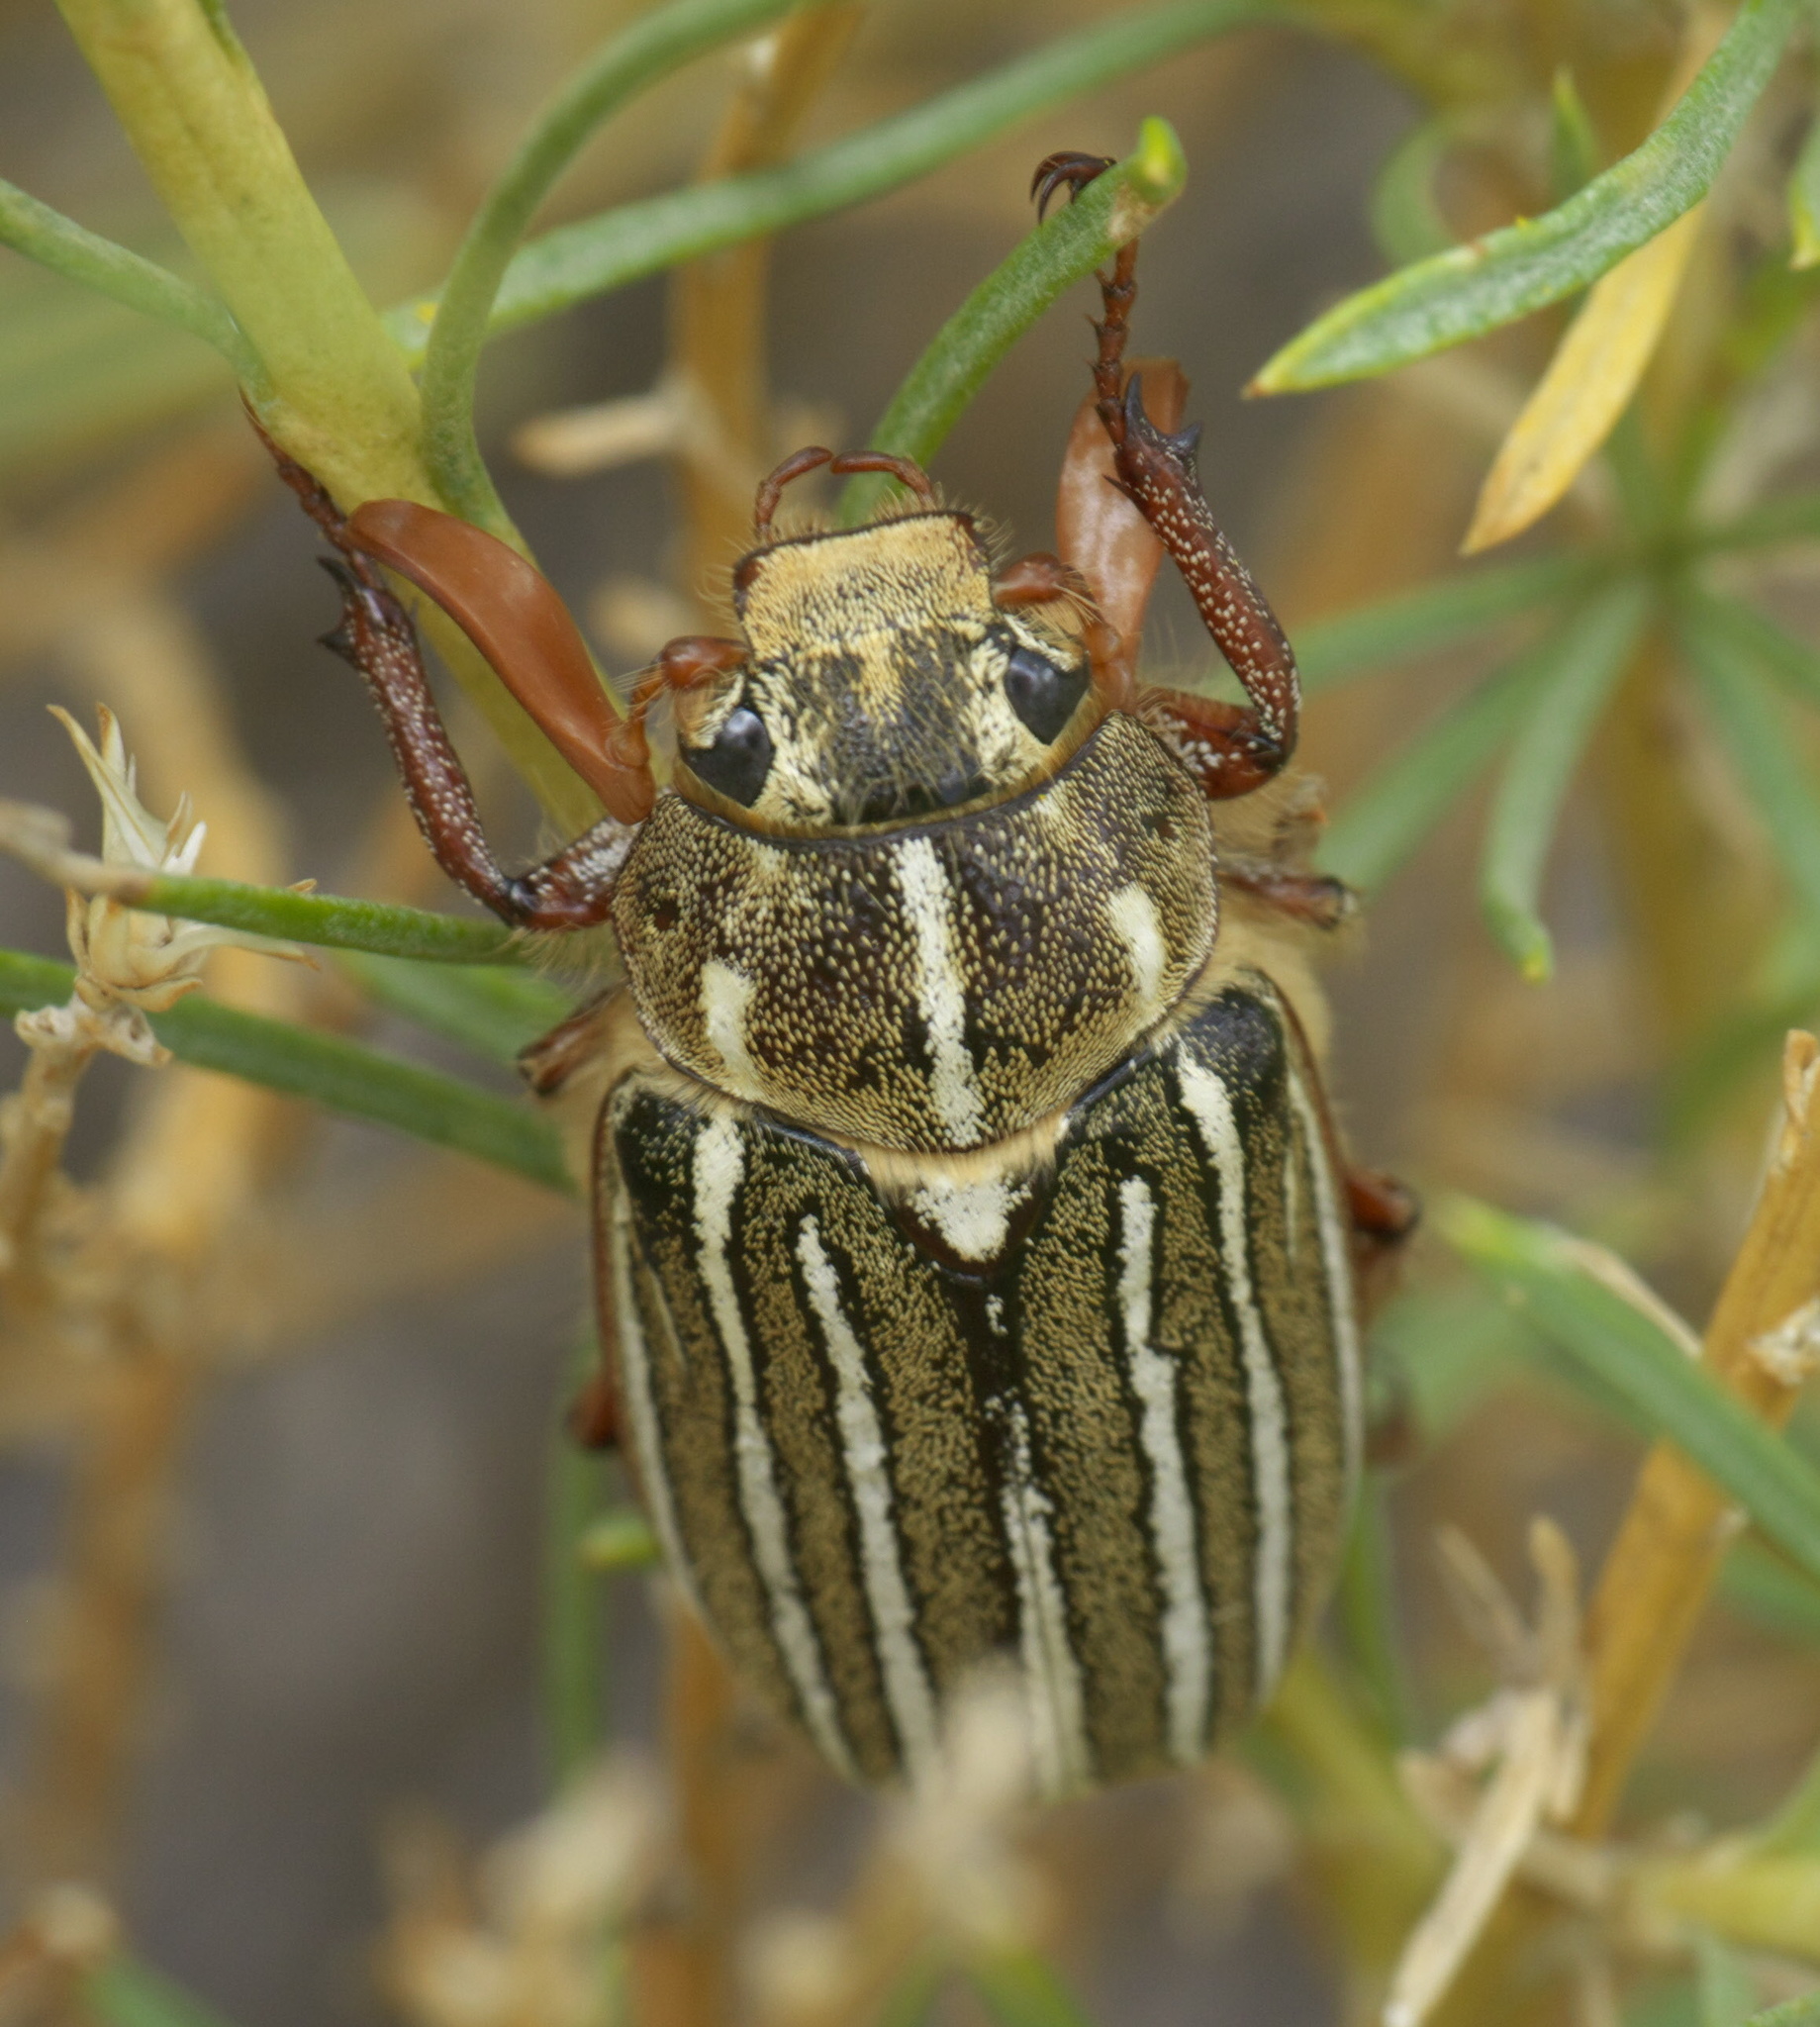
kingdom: Animalia
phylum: Arthropoda
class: Insecta
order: Coleoptera
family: Scarabaeidae
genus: Polyphylla
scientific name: Polyphylla decemlineata
